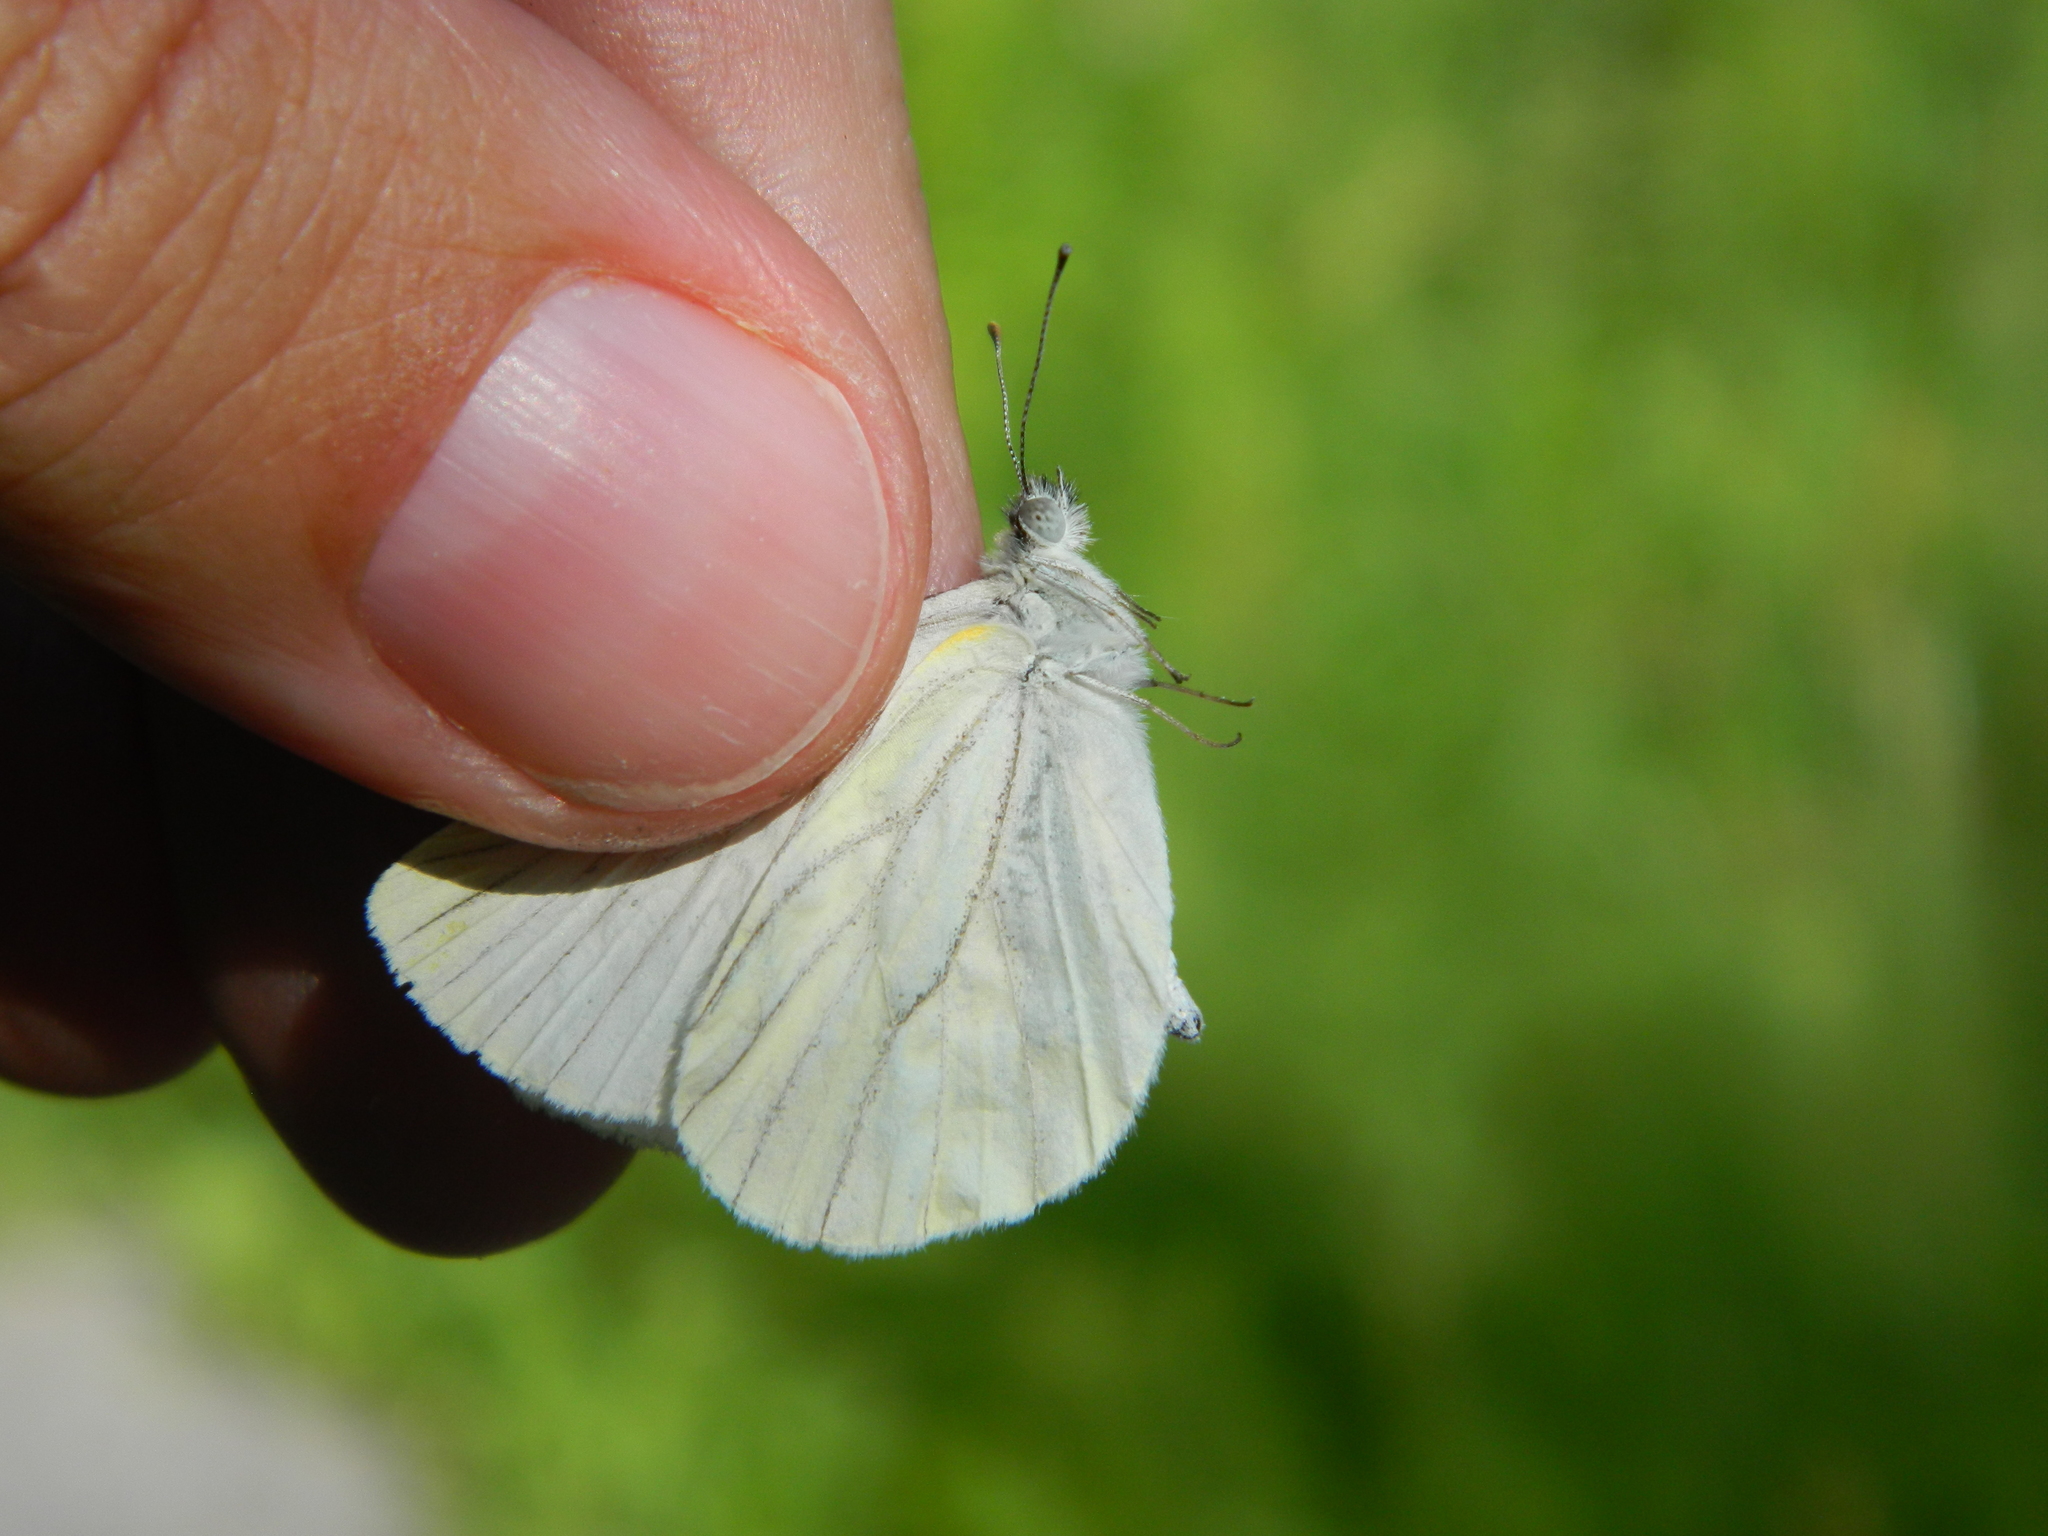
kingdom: Animalia
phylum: Arthropoda
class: Insecta
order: Lepidoptera
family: Pieridae
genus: Pieris
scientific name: Pieris oleracea
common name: Mustard white
